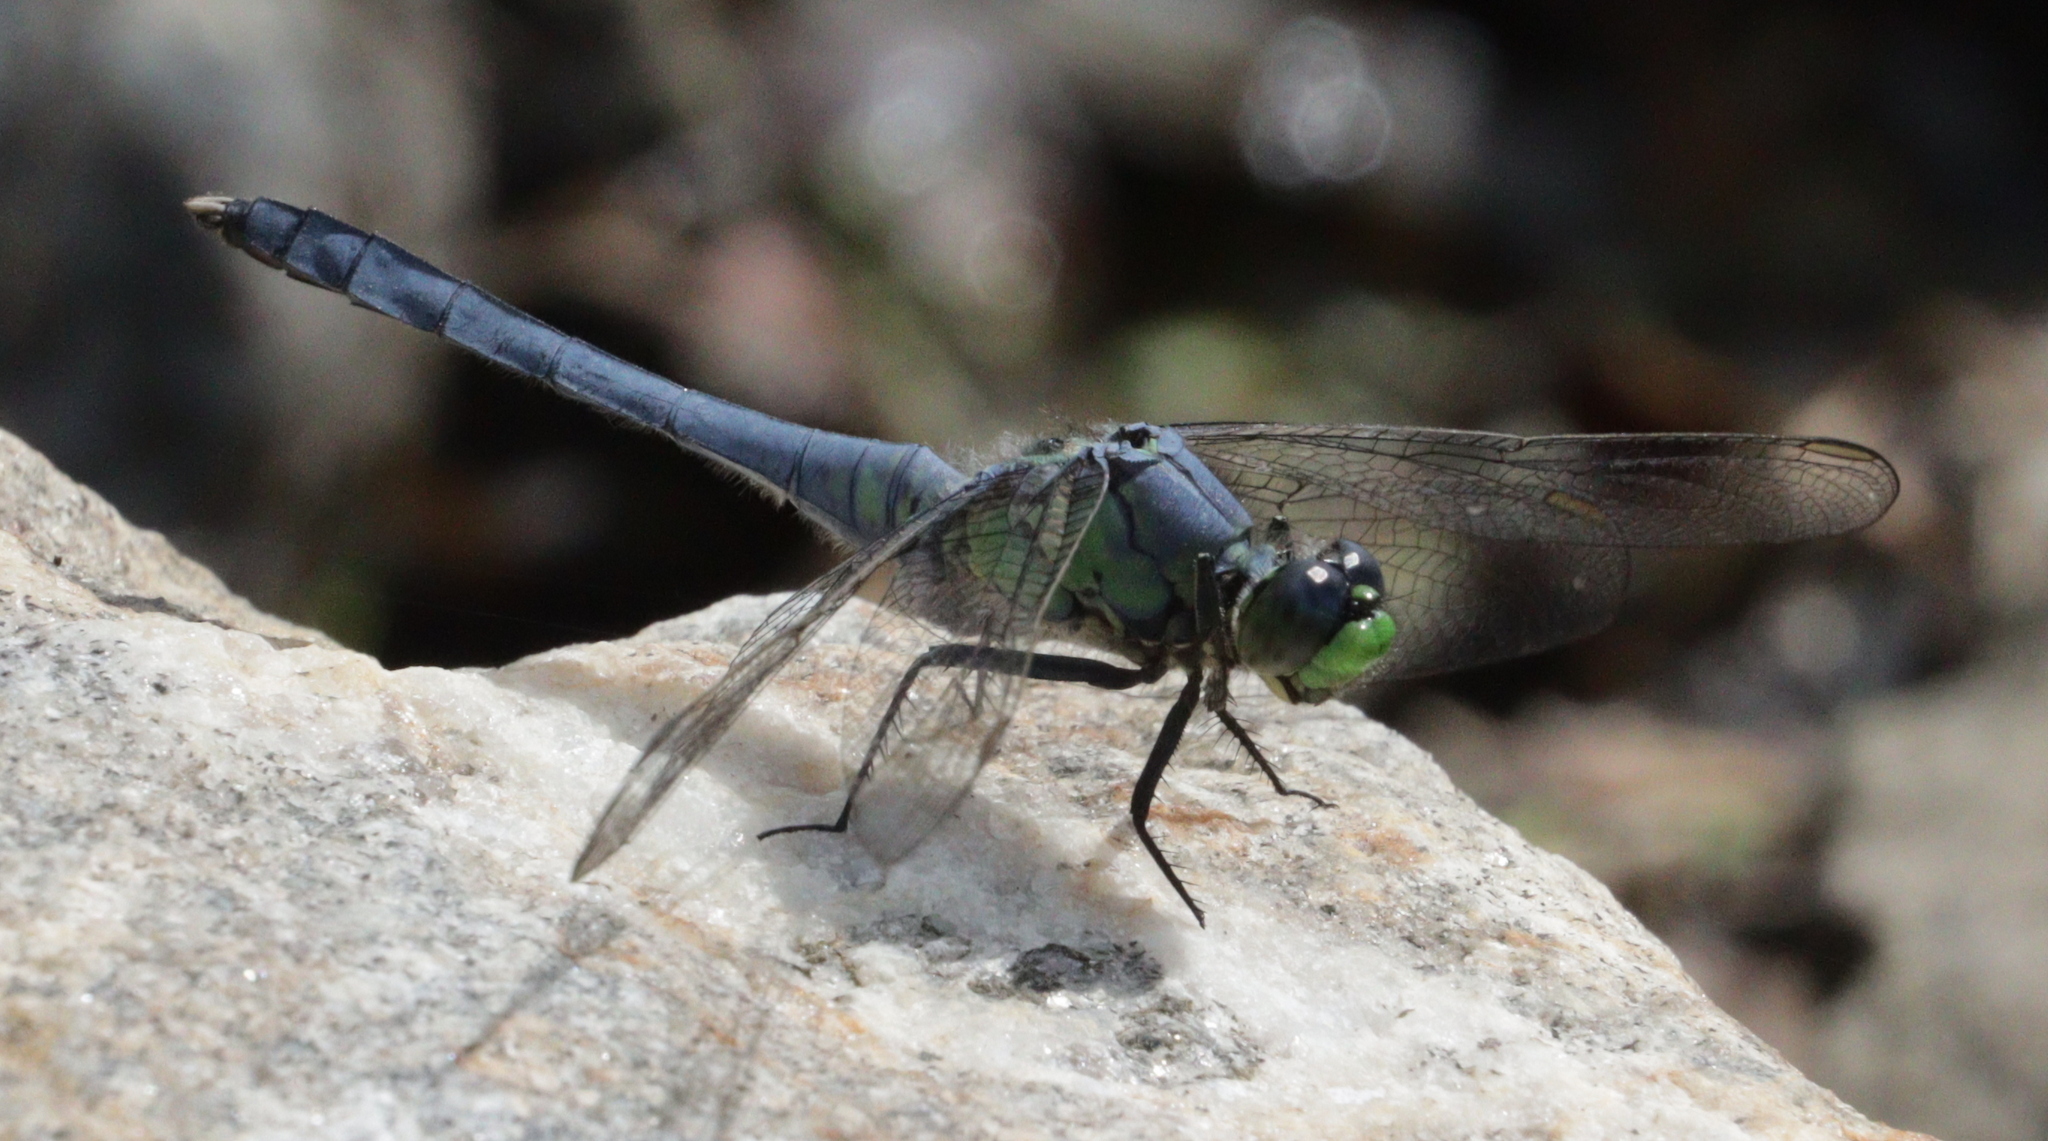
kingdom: Animalia
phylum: Arthropoda
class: Insecta
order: Odonata
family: Libellulidae
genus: Erythemis
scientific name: Erythemis simplicicollis
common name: Eastern pondhawk
